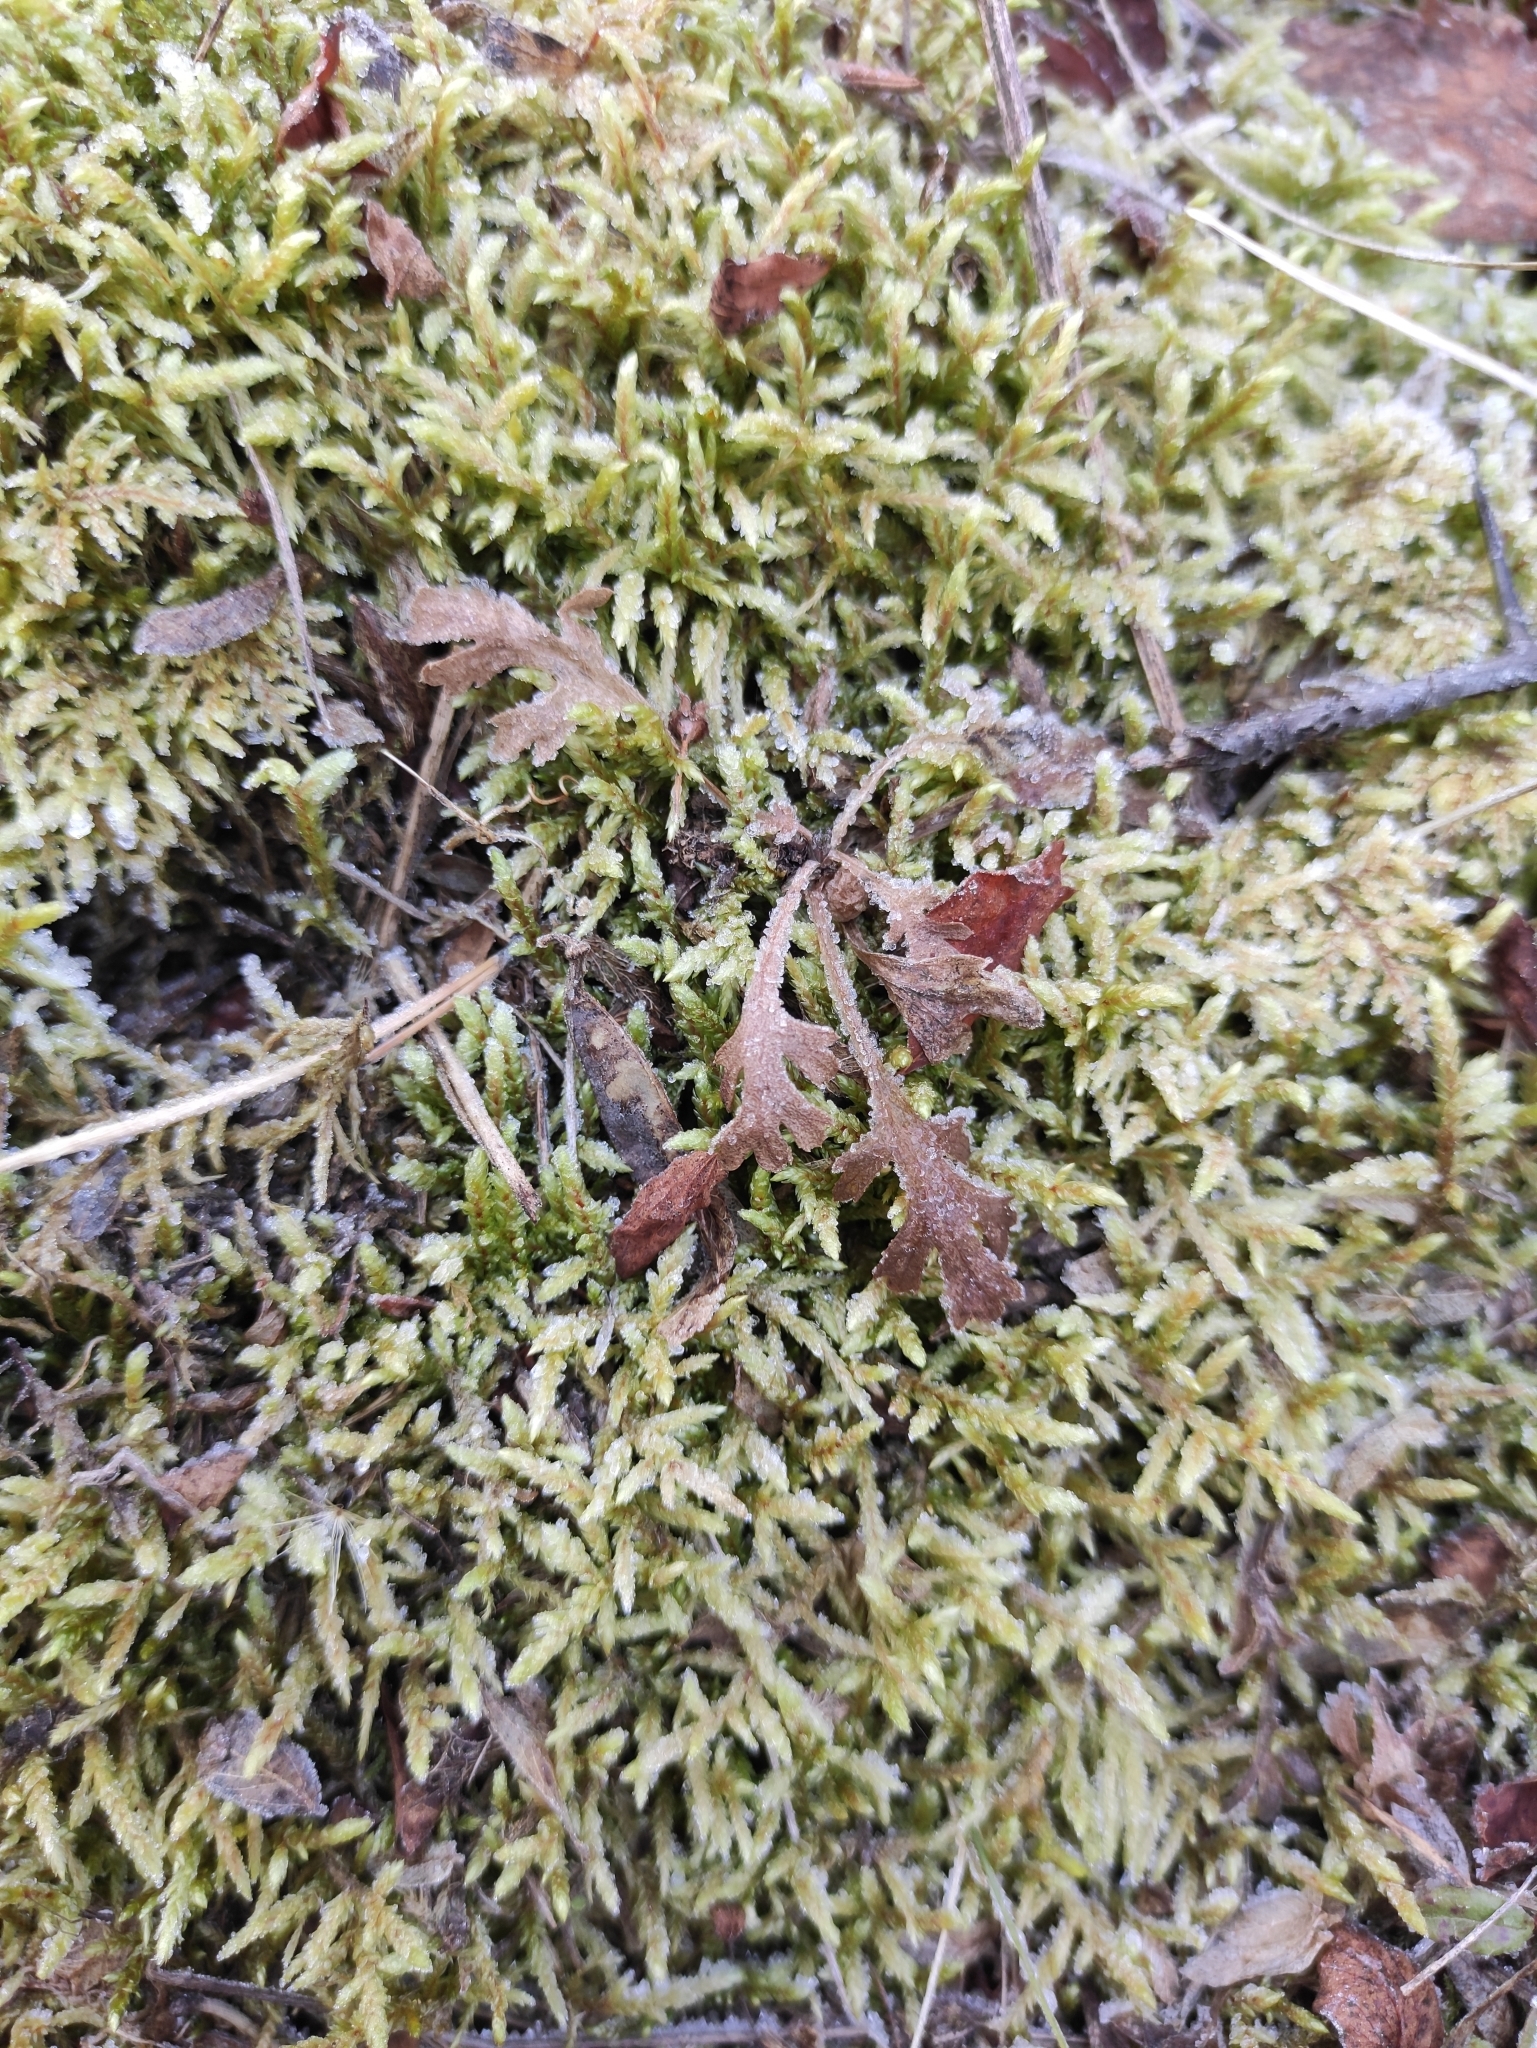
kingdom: Plantae
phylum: Tracheophyta
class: Magnoliopsida
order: Asterales
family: Asteraceae
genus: Chrysanthemum
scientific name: Chrysanthemum zawadzkii
